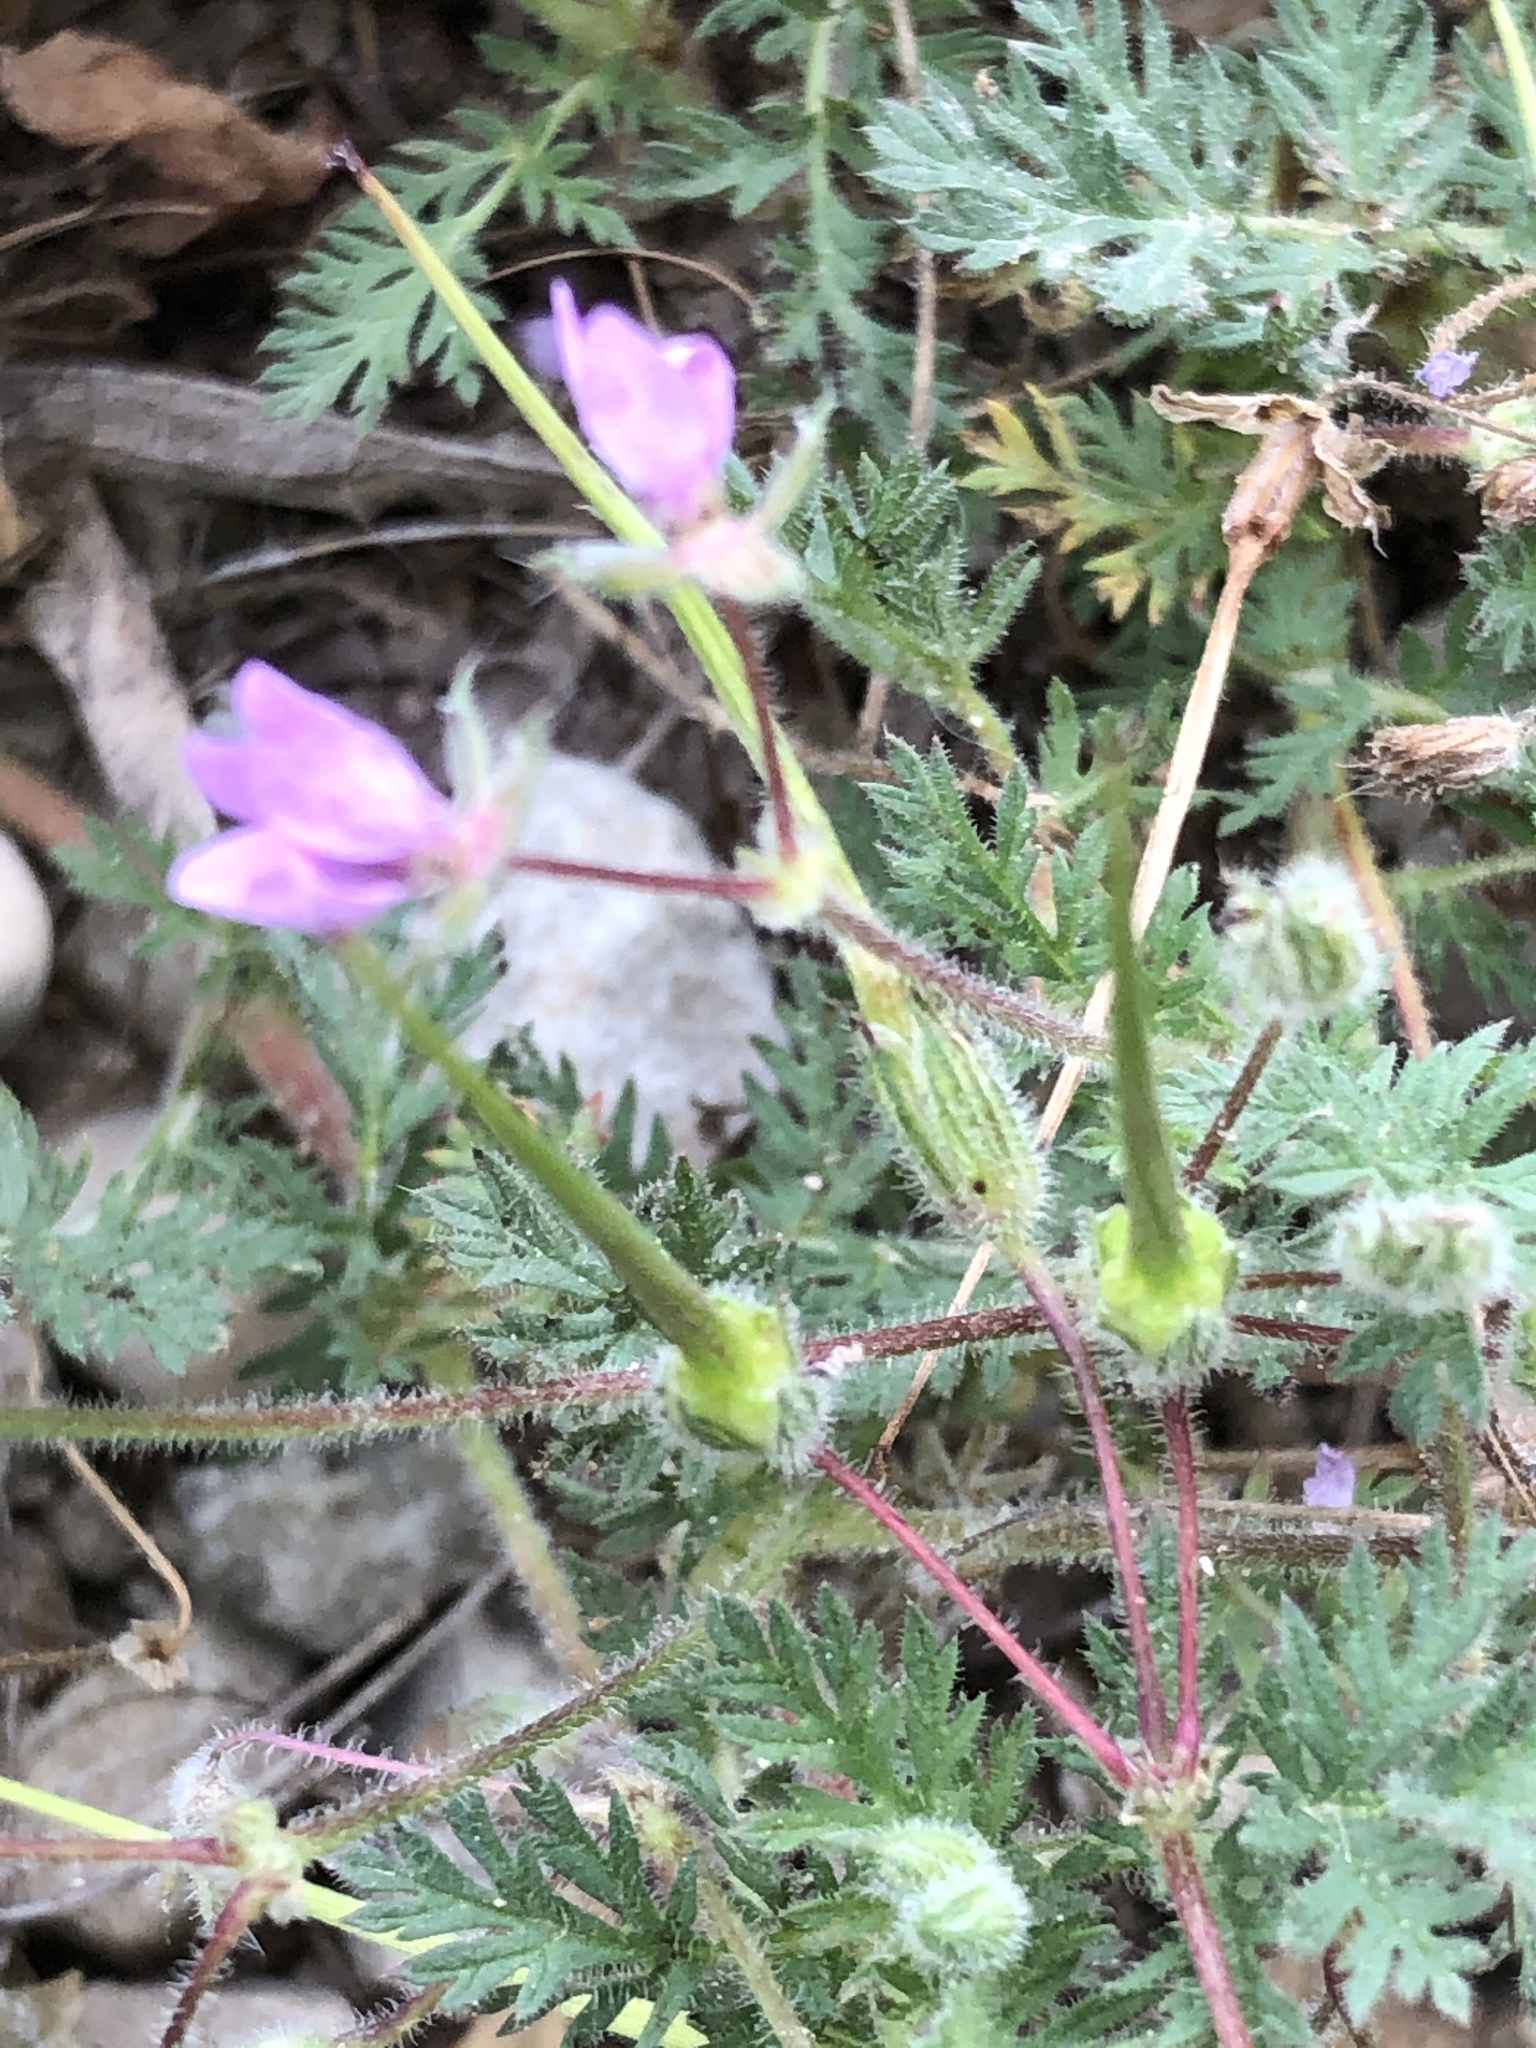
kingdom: Plantae
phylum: Tracheophyta
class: Magnoliopsida
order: Geraniales
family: Geraniaceae
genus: Erodium
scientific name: Erodium cicutarium
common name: Common stork's-bill
